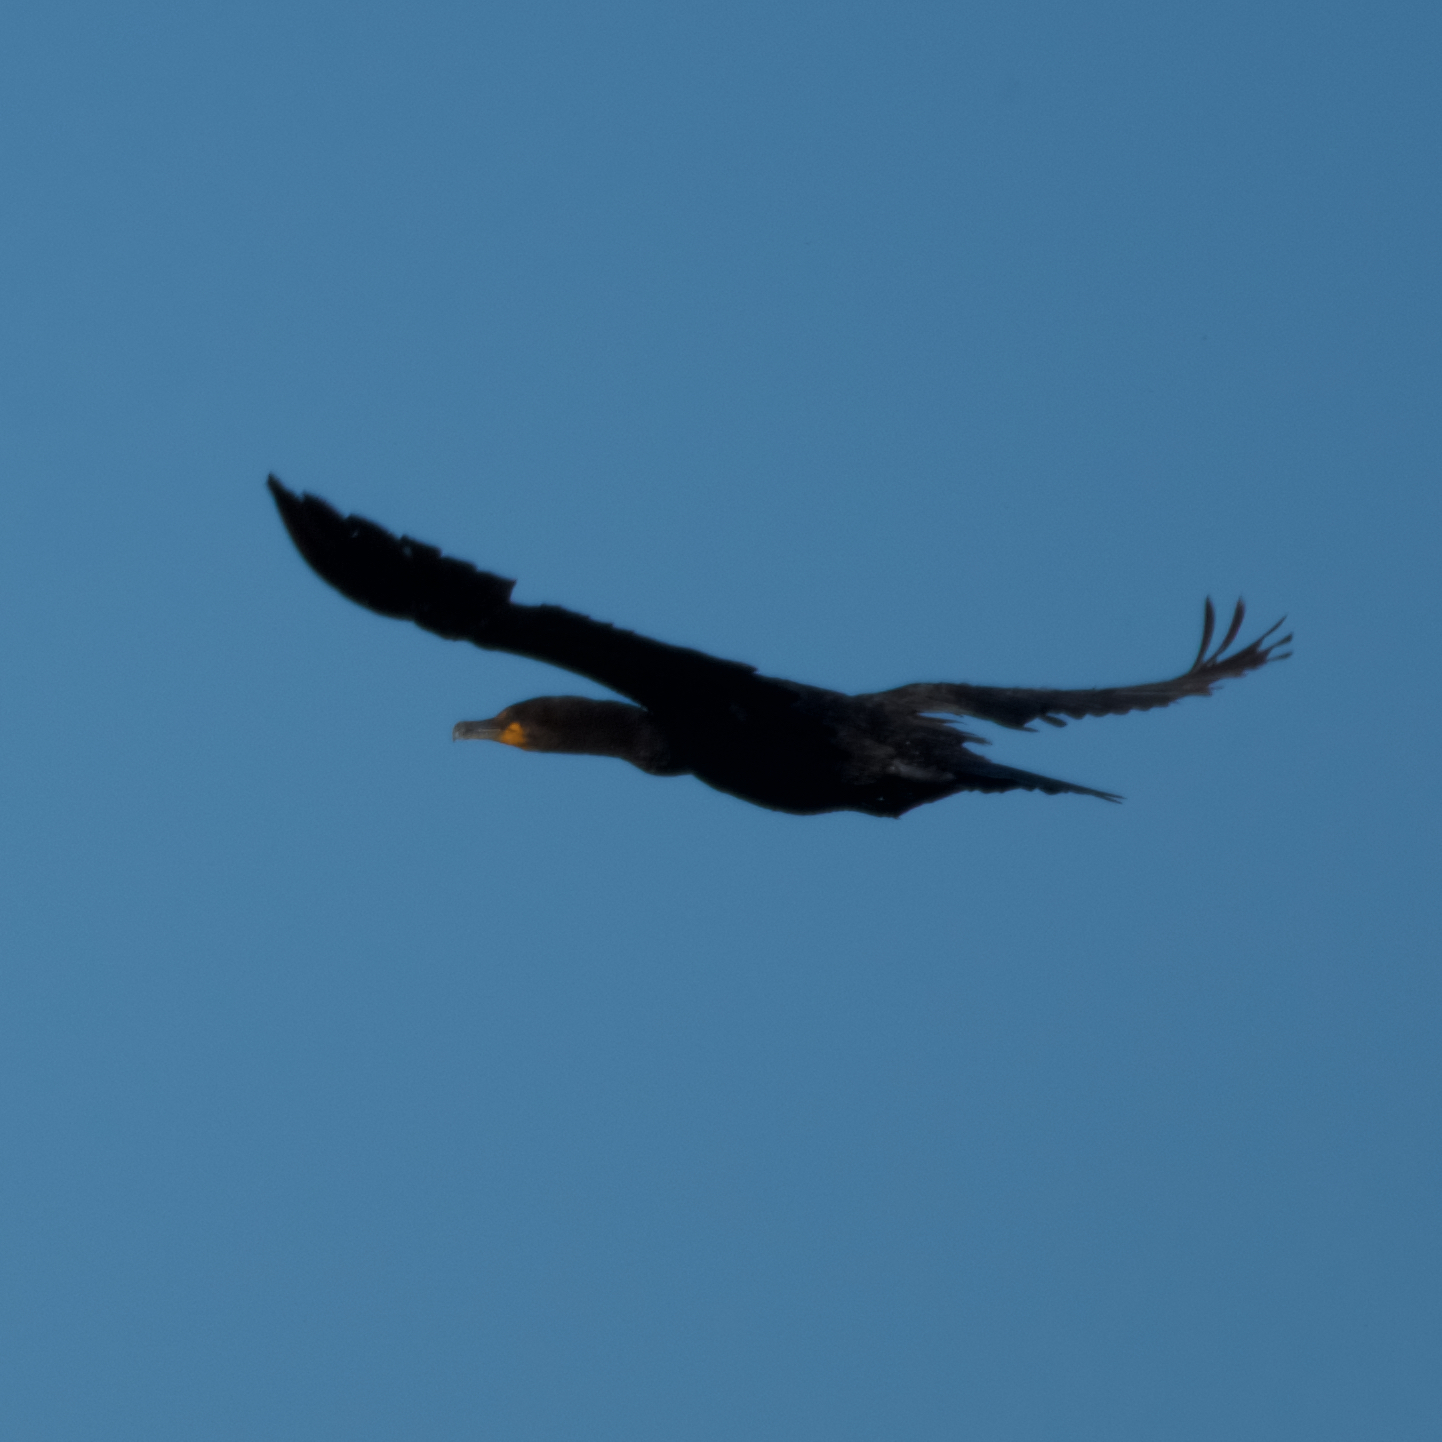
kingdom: Animalia
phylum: Chordata
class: Aves
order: Suliformes
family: Phalacrocoracidae
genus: Phalacrocorax
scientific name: Phalacrocorax auritus
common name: Double-crested cormorant
